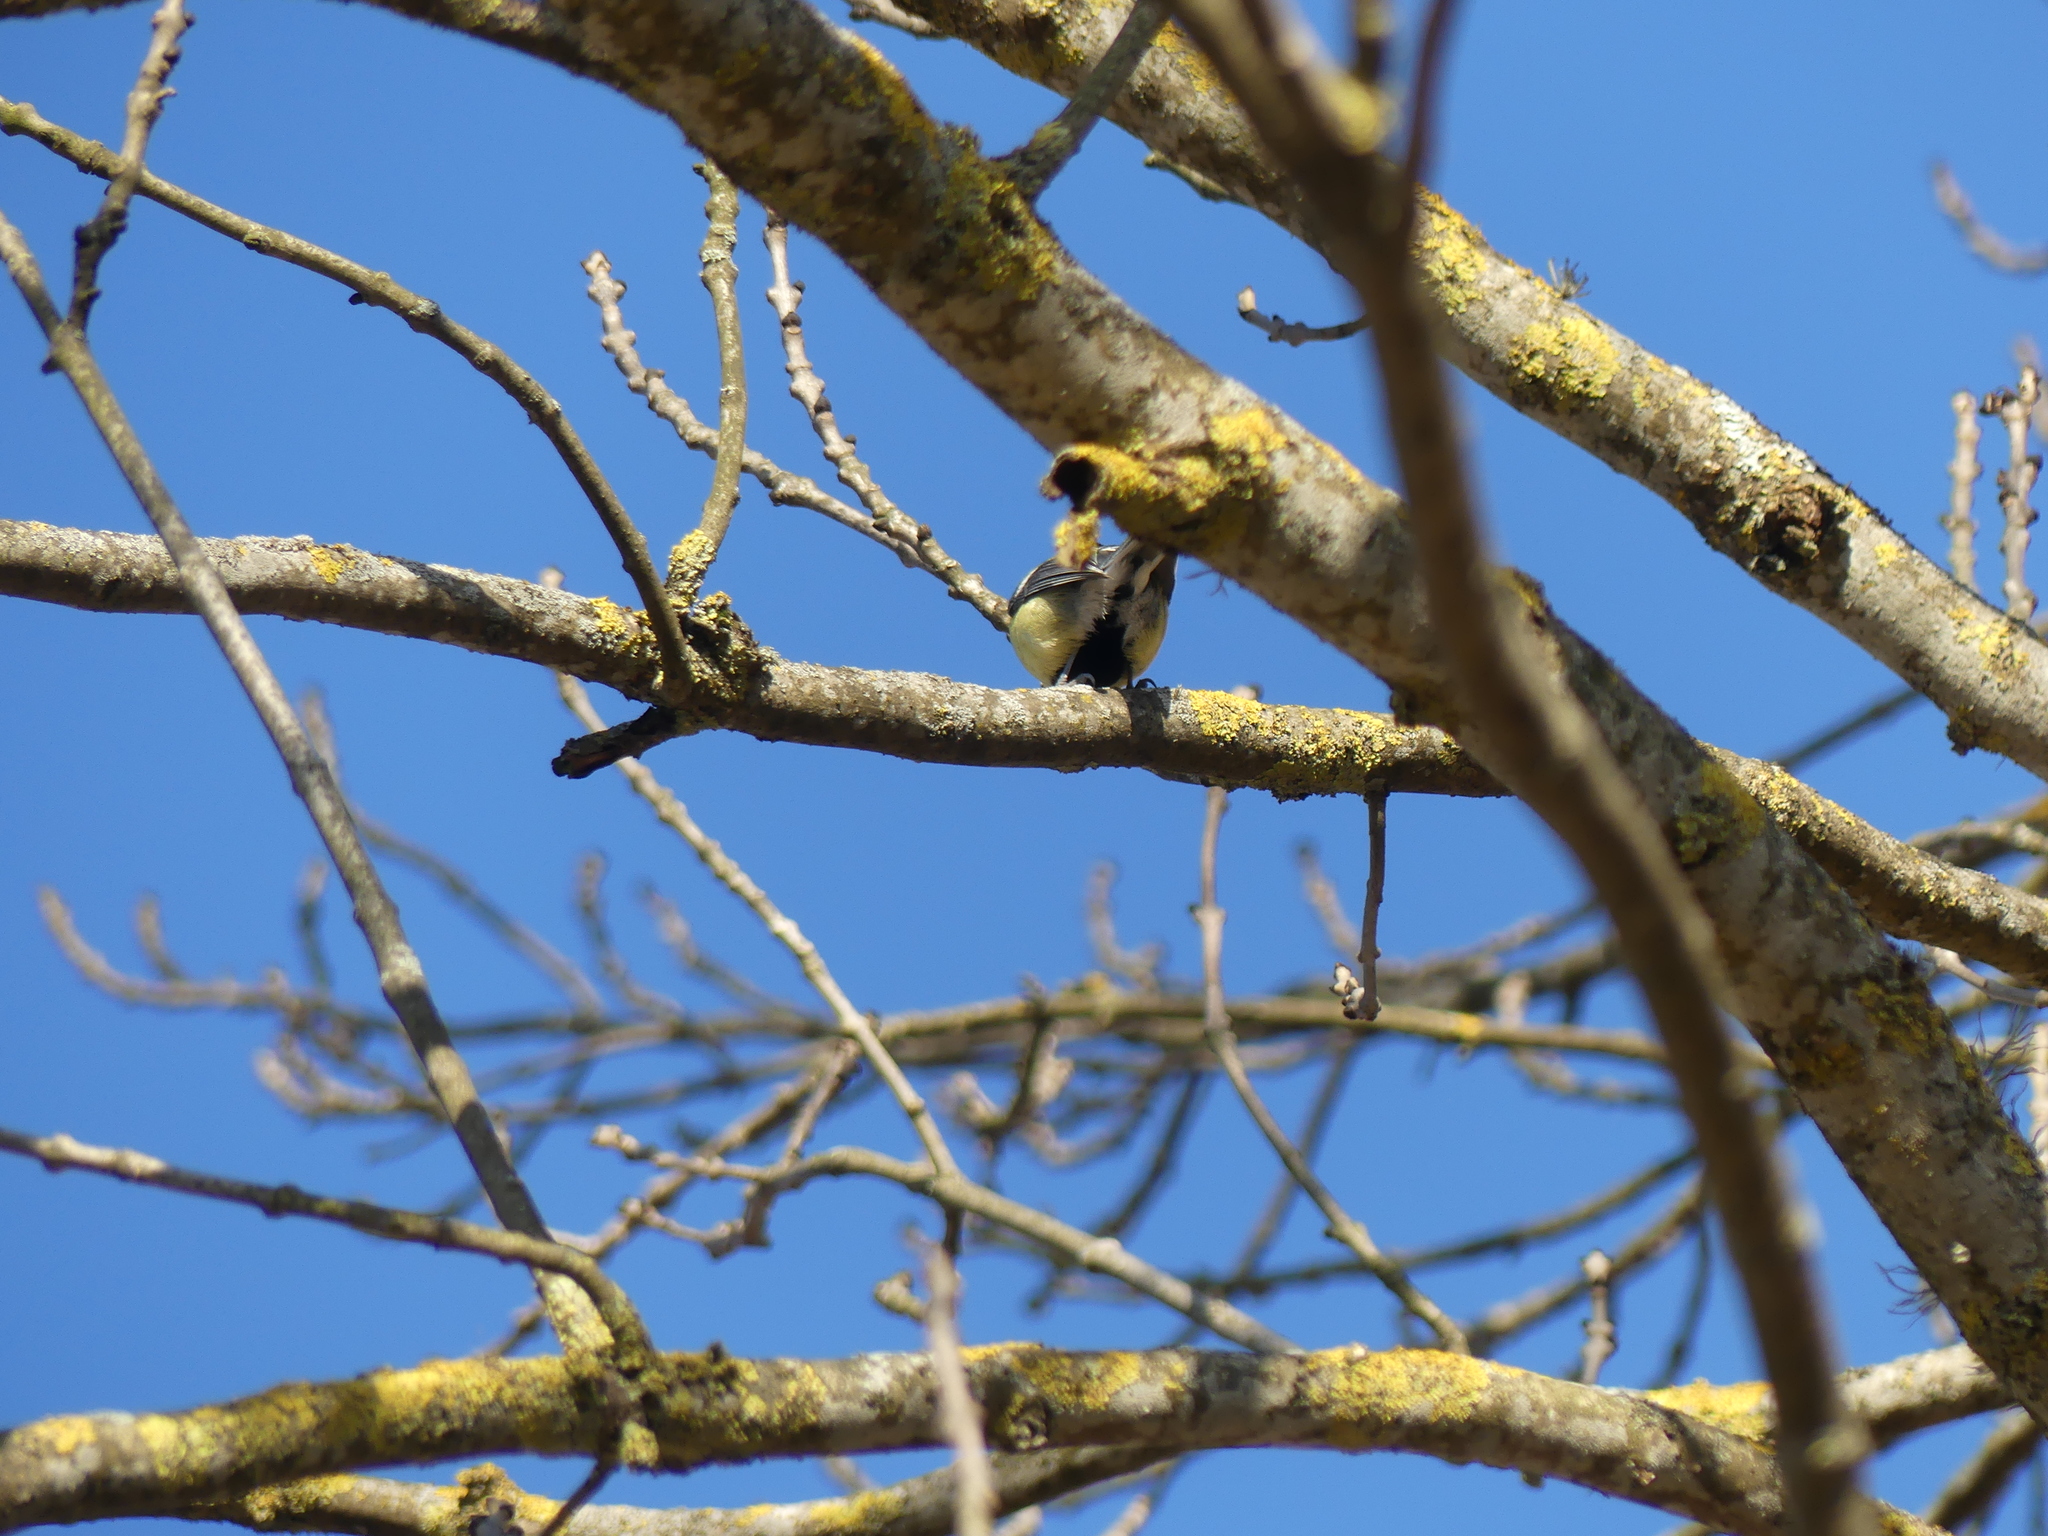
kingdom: Animalia
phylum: Chordata
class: Aves
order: Passeriformes
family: Paridae
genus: Parus
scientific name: Parus major
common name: Great tit
